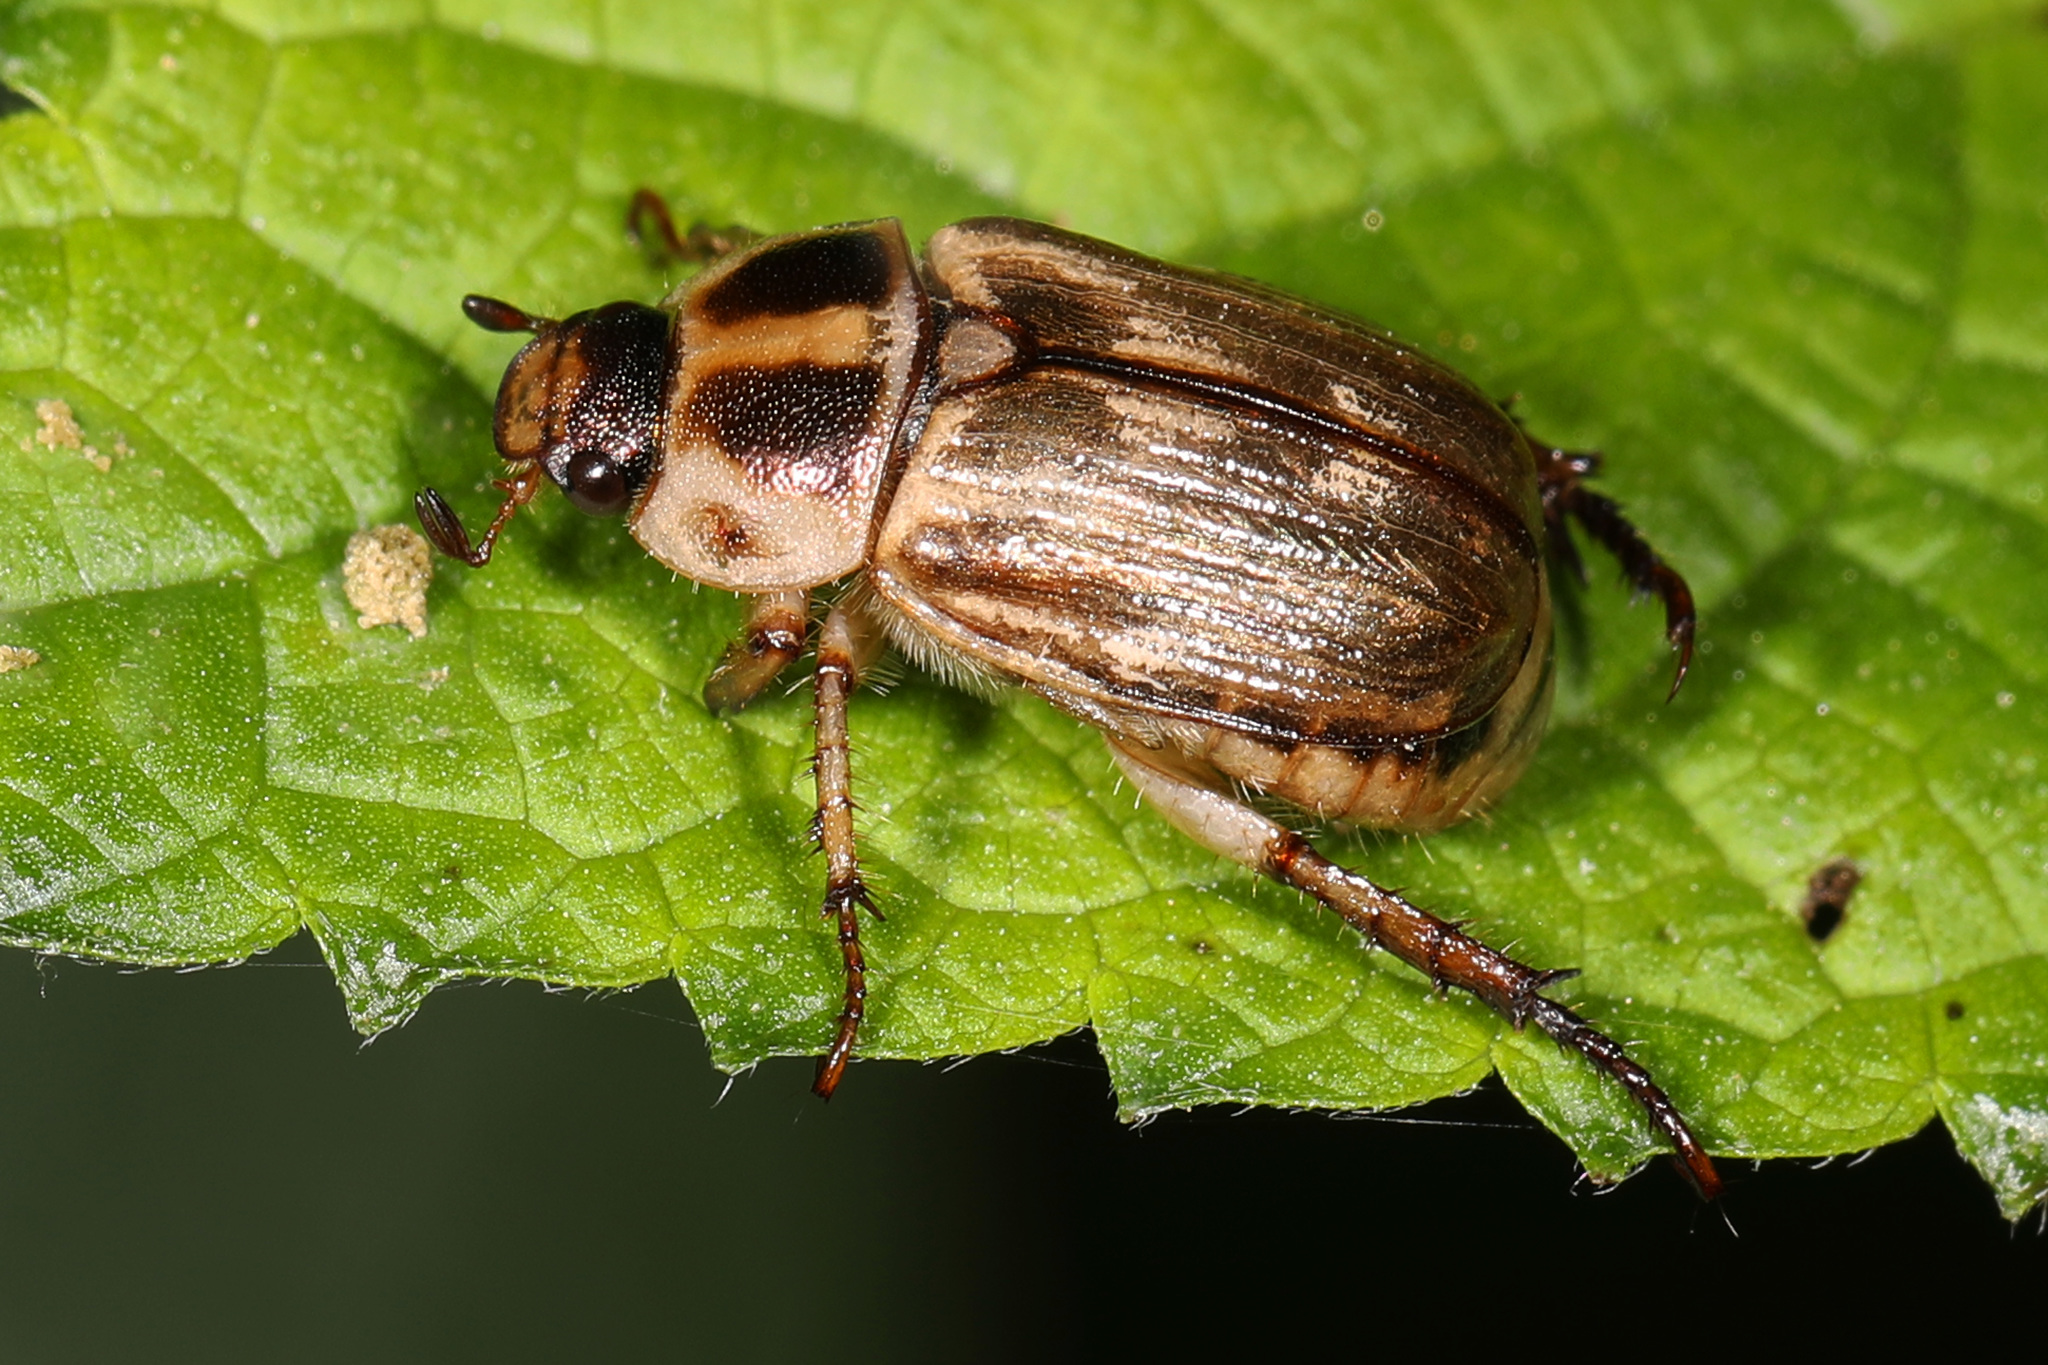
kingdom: Animalia
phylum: Arthropoda
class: Insecta
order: Coleoptera
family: Scarabaeidae
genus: Exomala
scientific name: Exomala orientalis
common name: Oriental beetle
